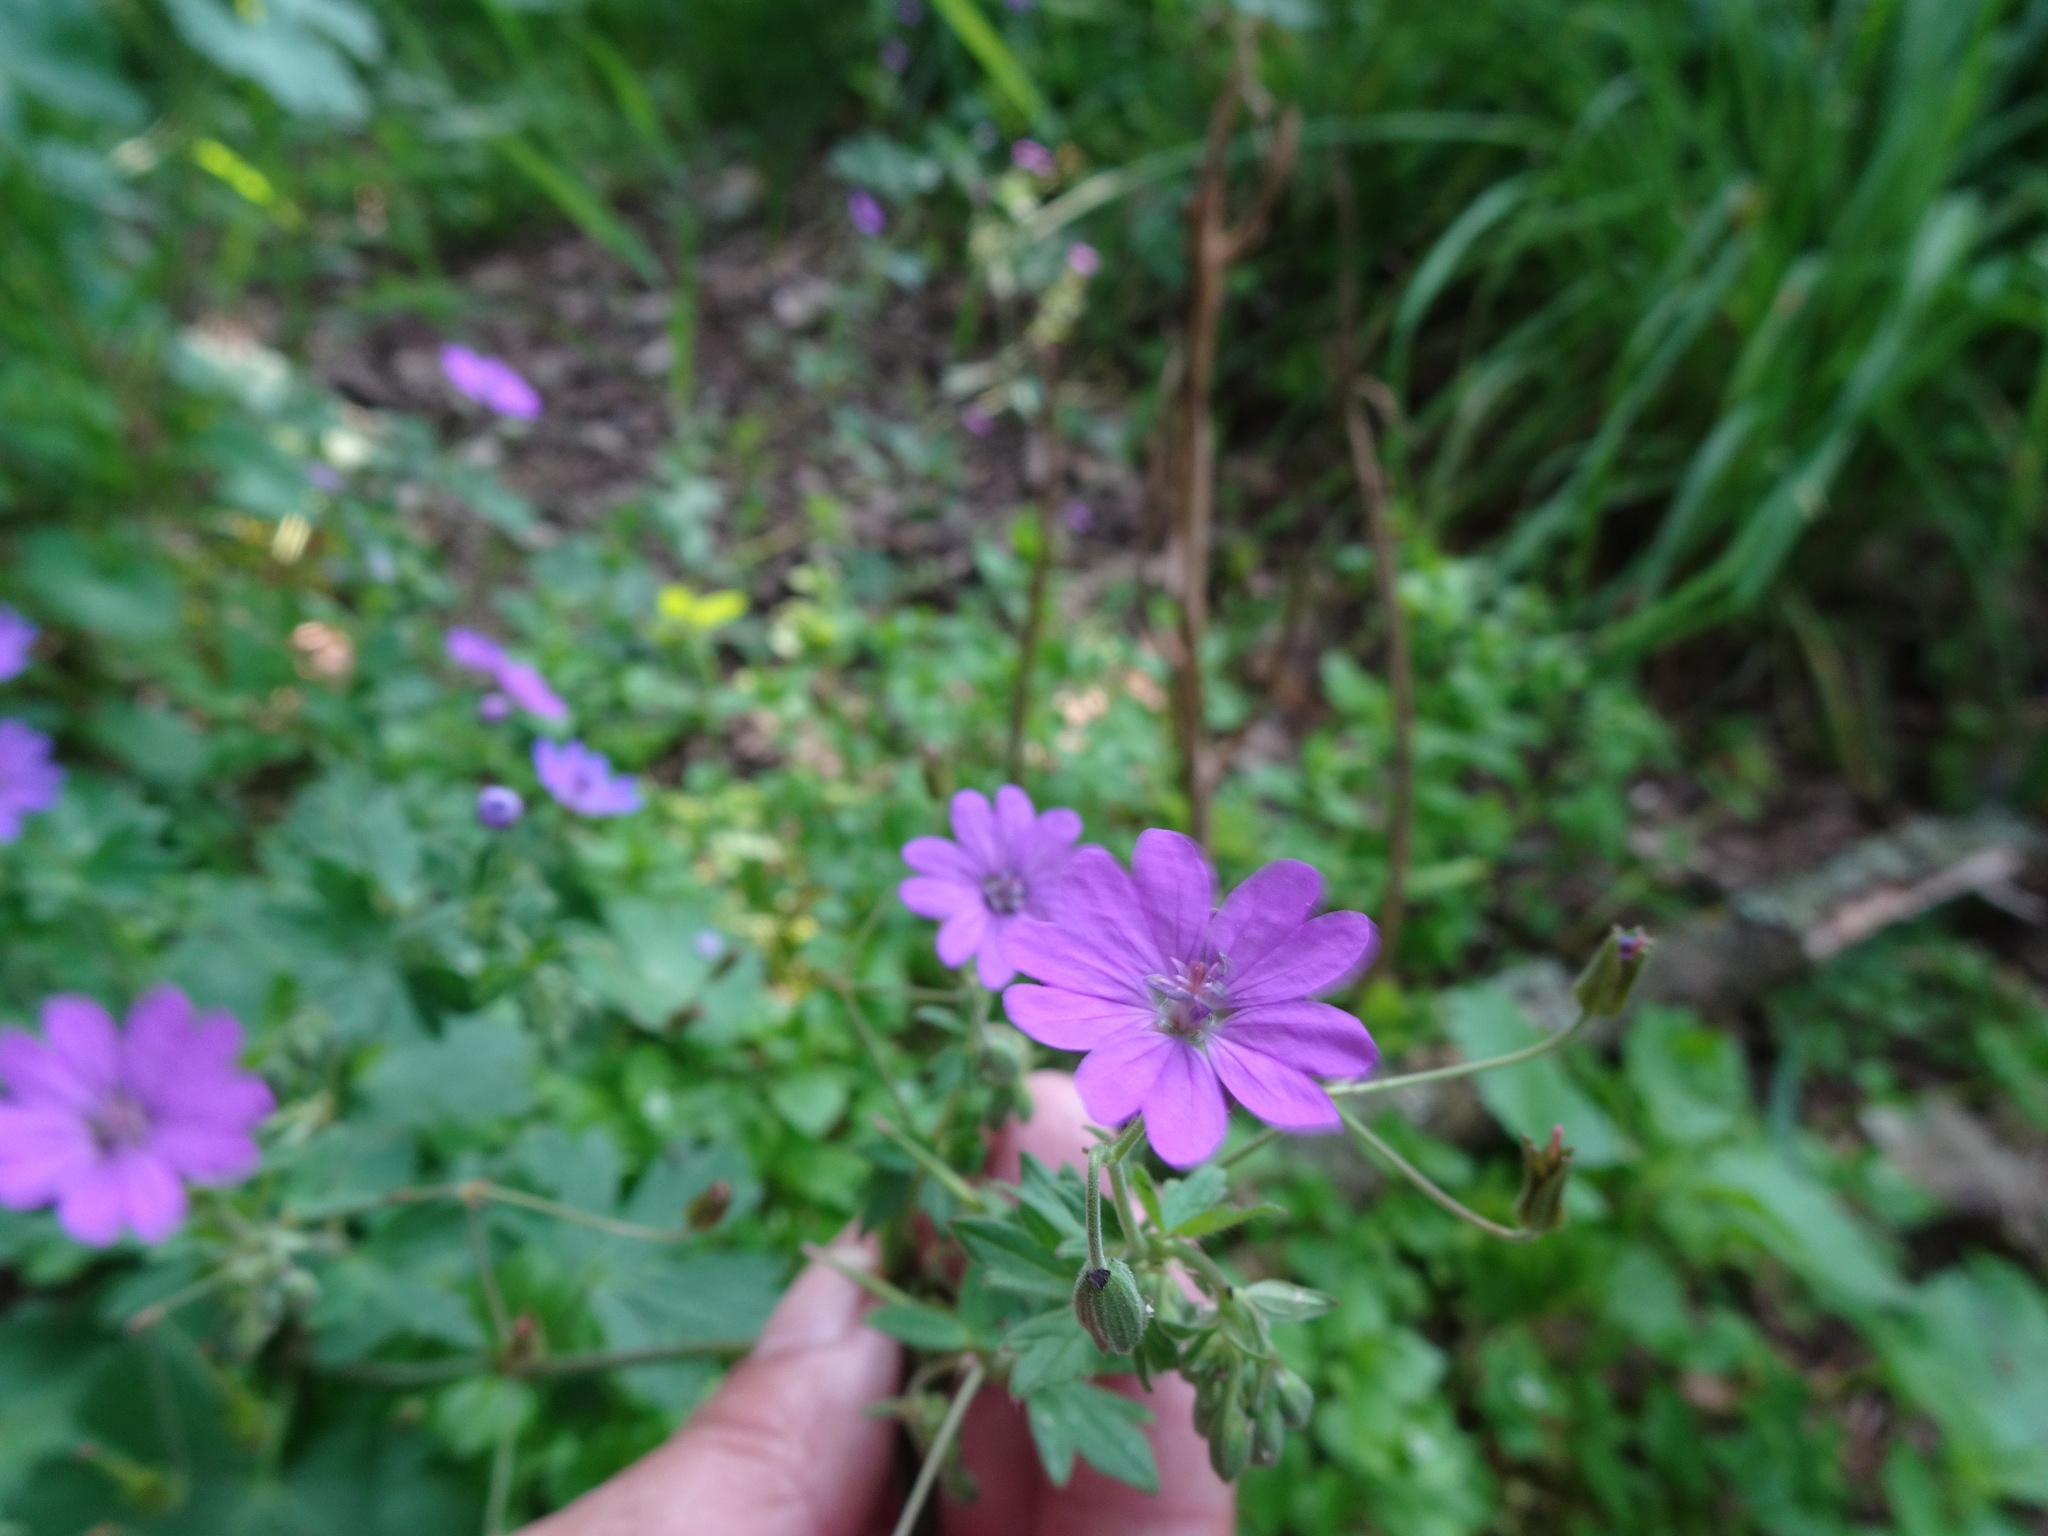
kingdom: Plantae
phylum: Tracheophyta
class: Magnoliopsida
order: Geraniales
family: Geraniaceae
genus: Geranium
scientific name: Geranium pyrenaicum
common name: Hedgerow crane's-bill
